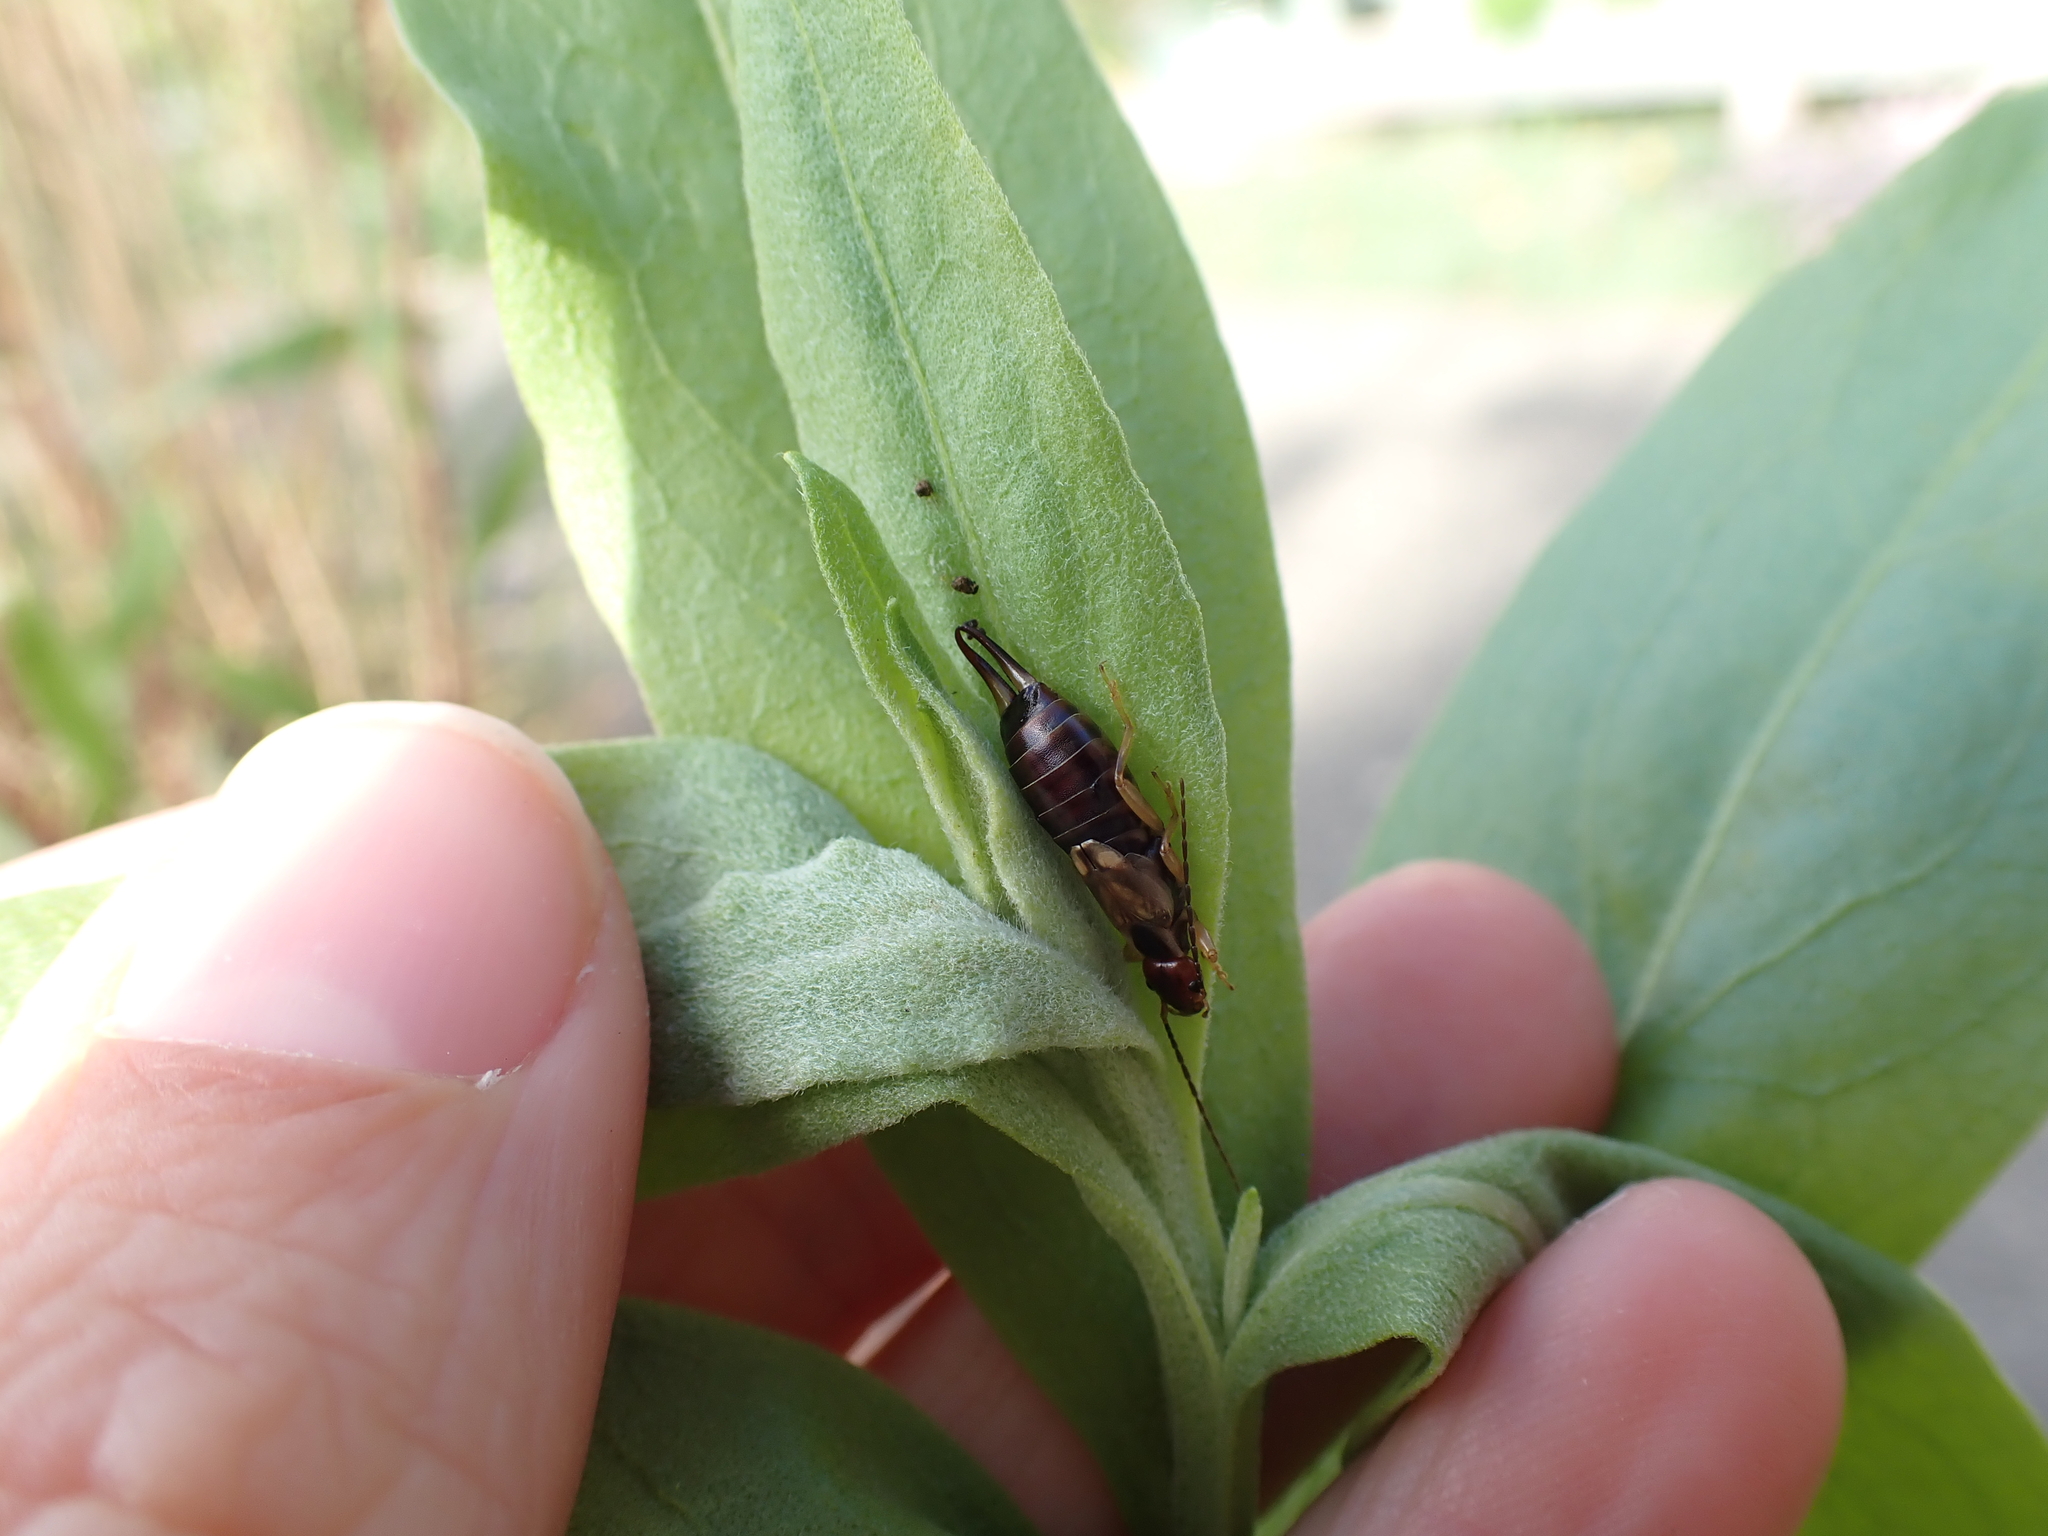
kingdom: Animalia
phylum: Arthropoda
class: Insecta
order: Dermaptera
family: Forficulidae
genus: Forficula
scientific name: Forficula
